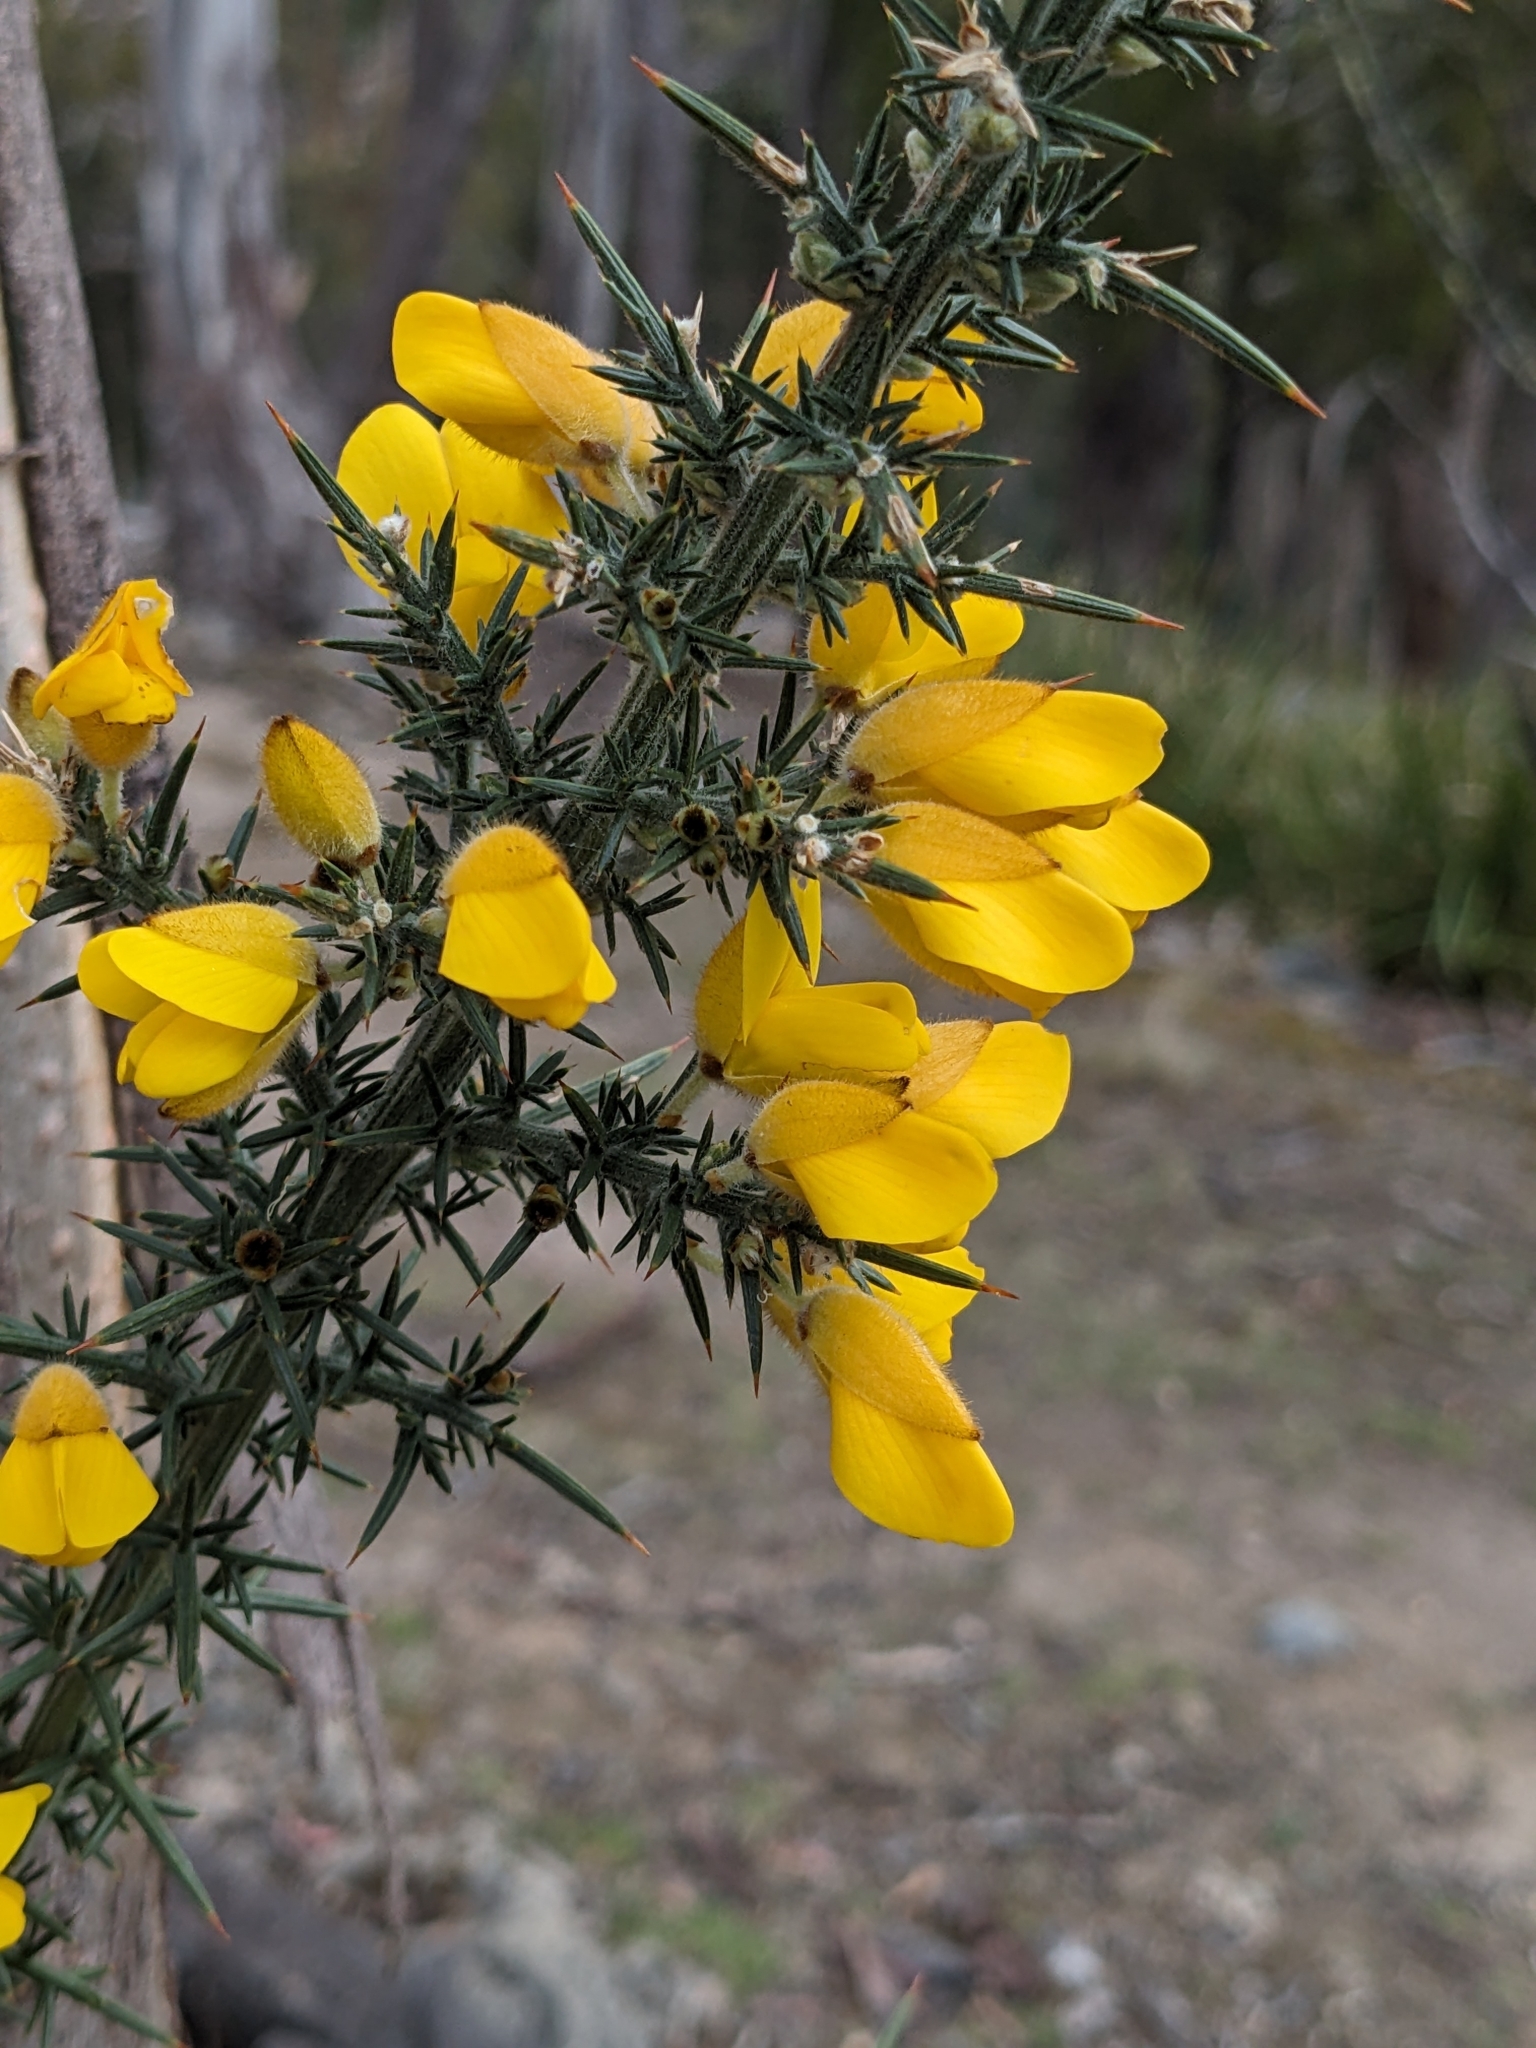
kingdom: Plantae
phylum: Tracheophyta
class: Magnoliopsida
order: Fabales
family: Fabaceae
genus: Ulex
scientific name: Ulex europaeus
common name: Common gorse
